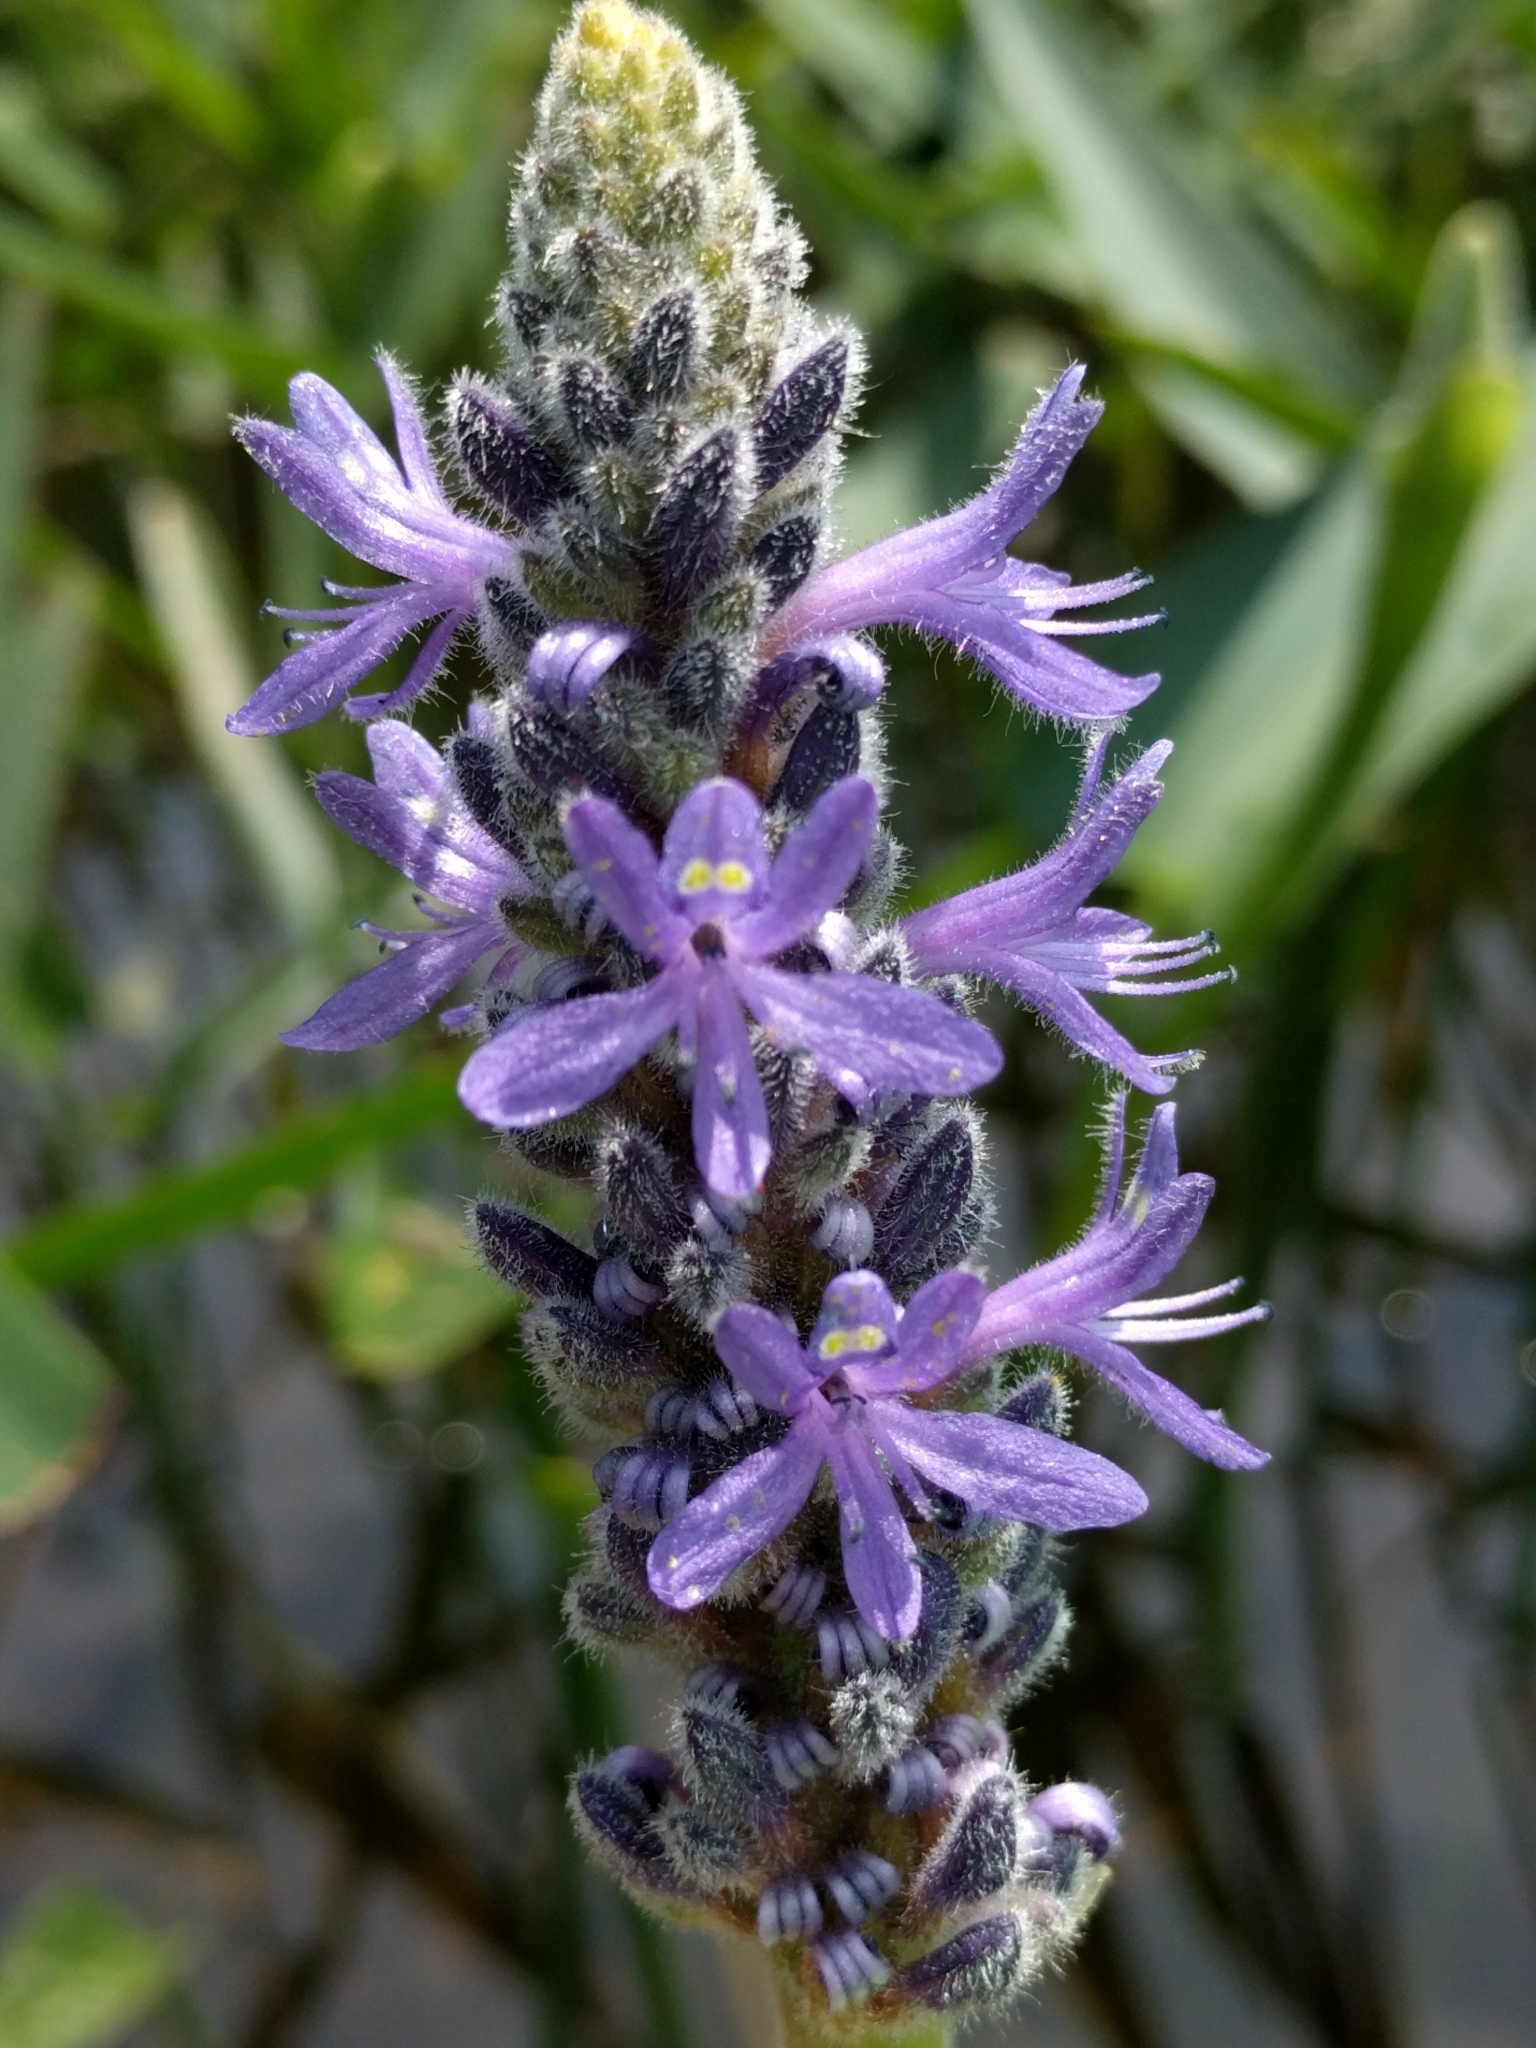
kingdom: Plantae
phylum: Tracheophyta
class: Liliopsida
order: Commelinales
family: Pontederiaceae
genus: Pontederia
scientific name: Pontederia cordata
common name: Pickerelweed
